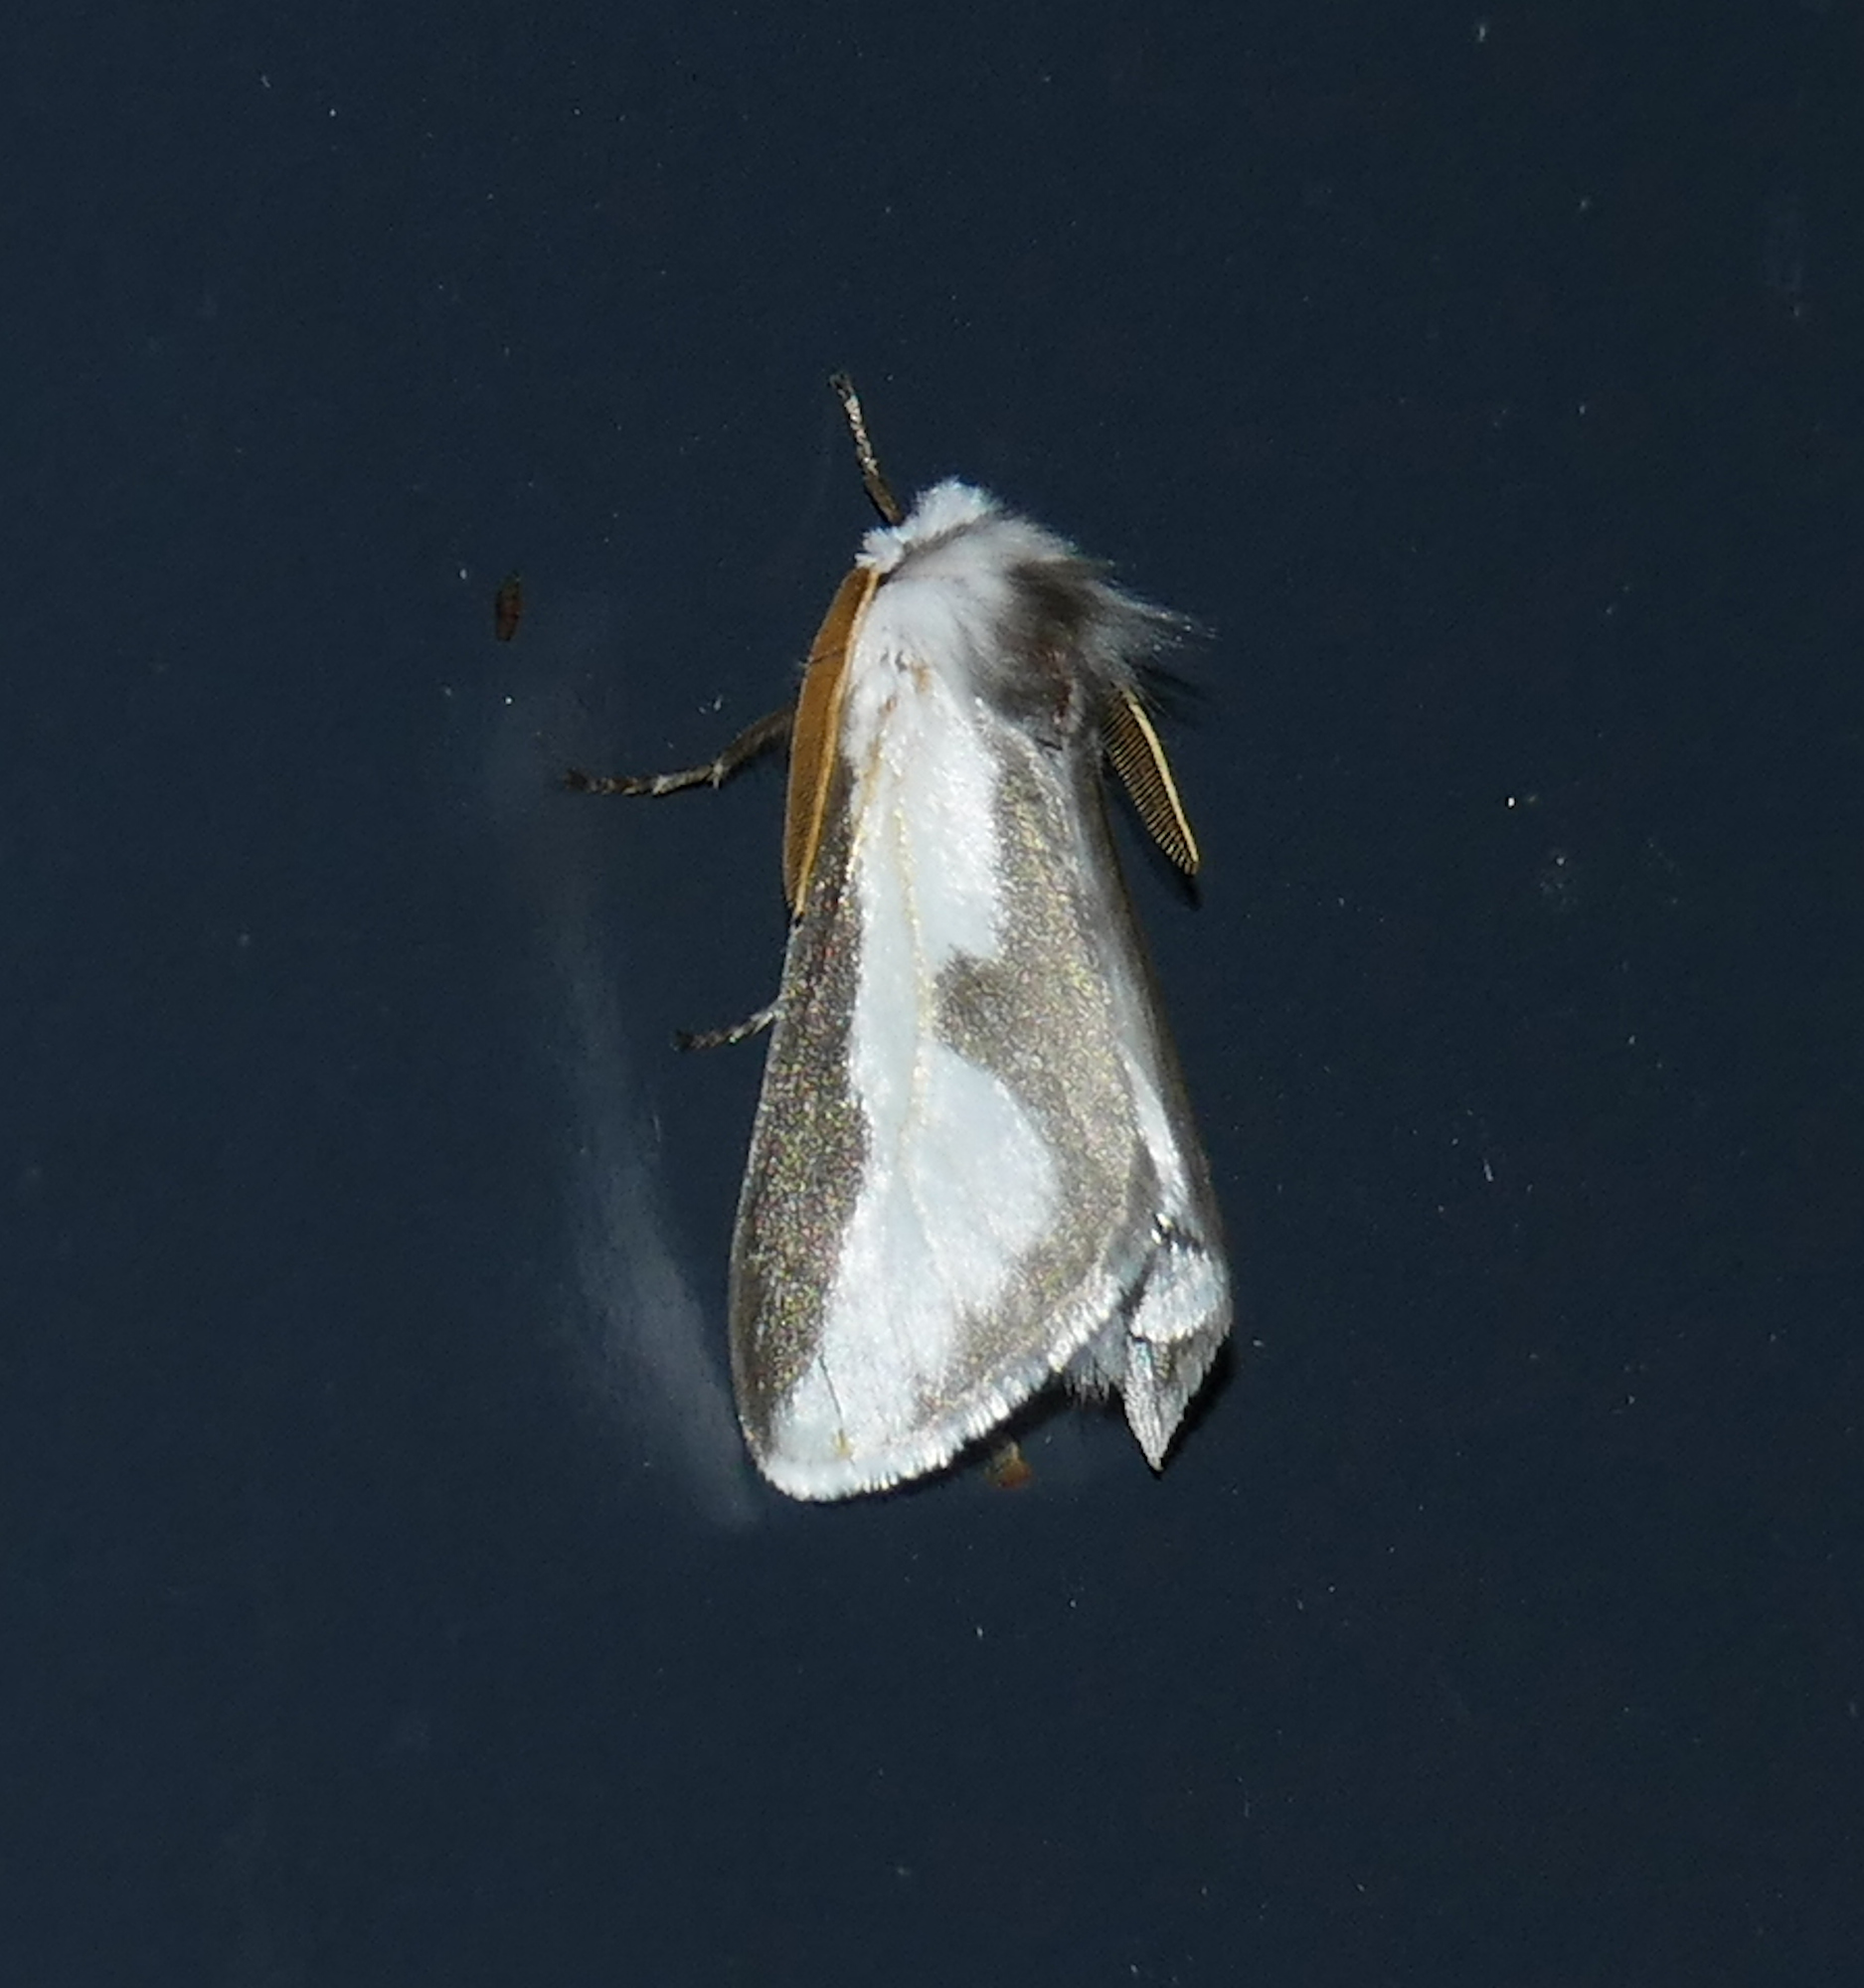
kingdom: Animalia
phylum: Arthropoda
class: Insecta
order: Lepidoptera
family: Megalopygidae
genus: Norape
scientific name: Norape tener
